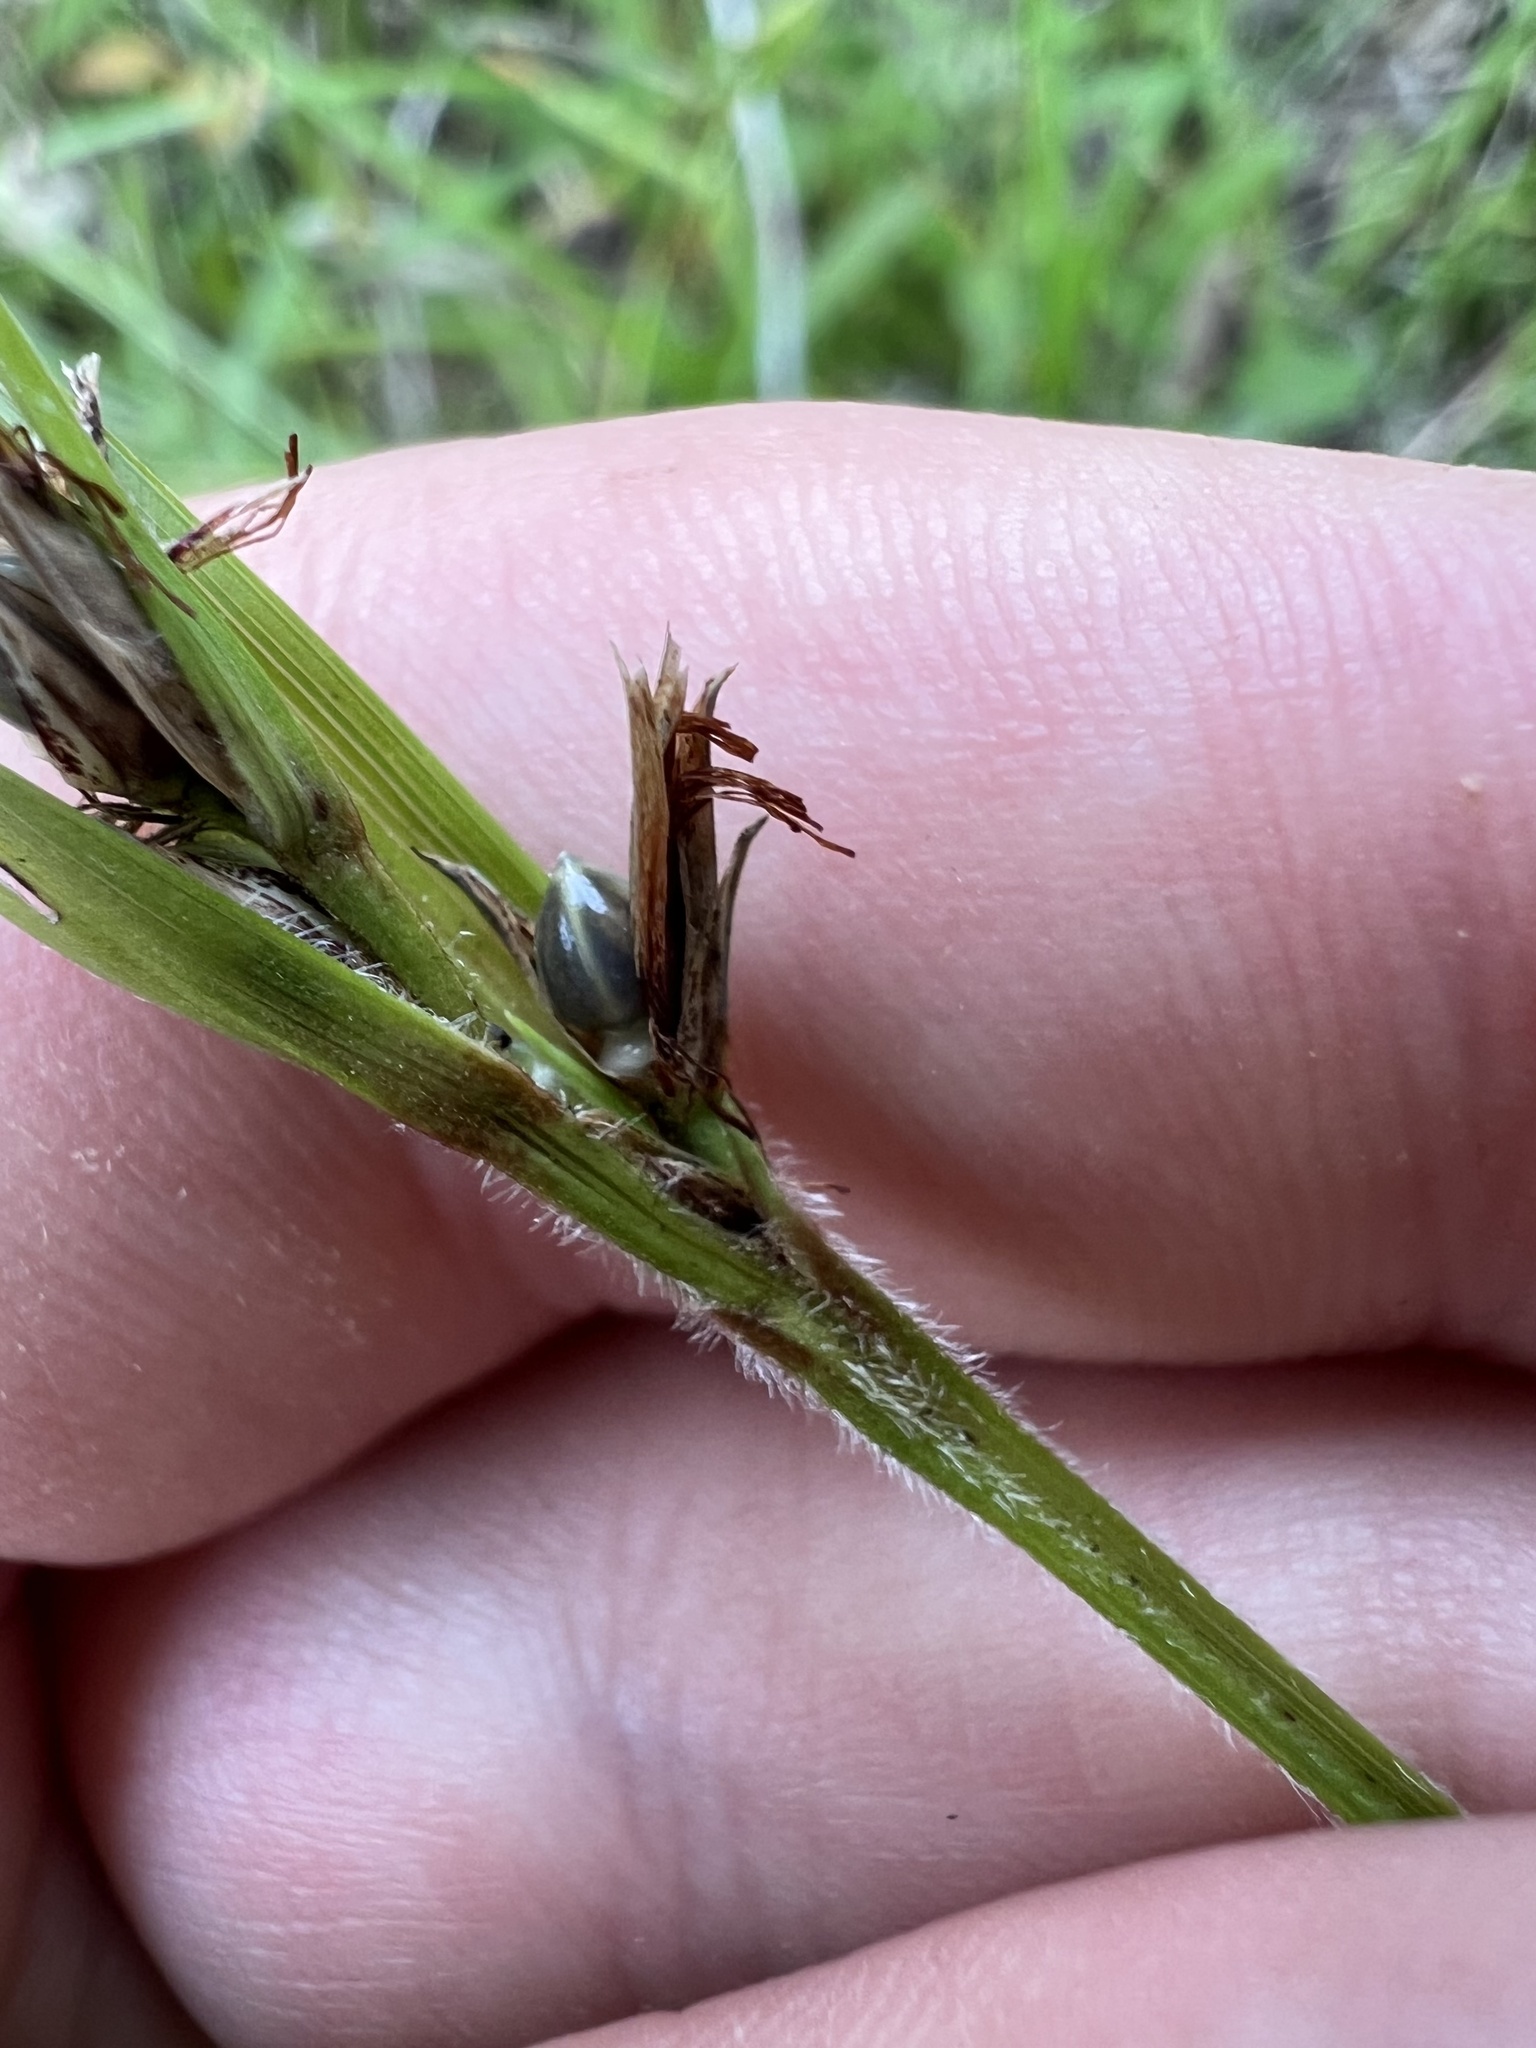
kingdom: Plantae
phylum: Tracheophyta
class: Liliopsida
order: Poales
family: Cyperaceae
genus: Scleria
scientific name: Scleria oligantha
